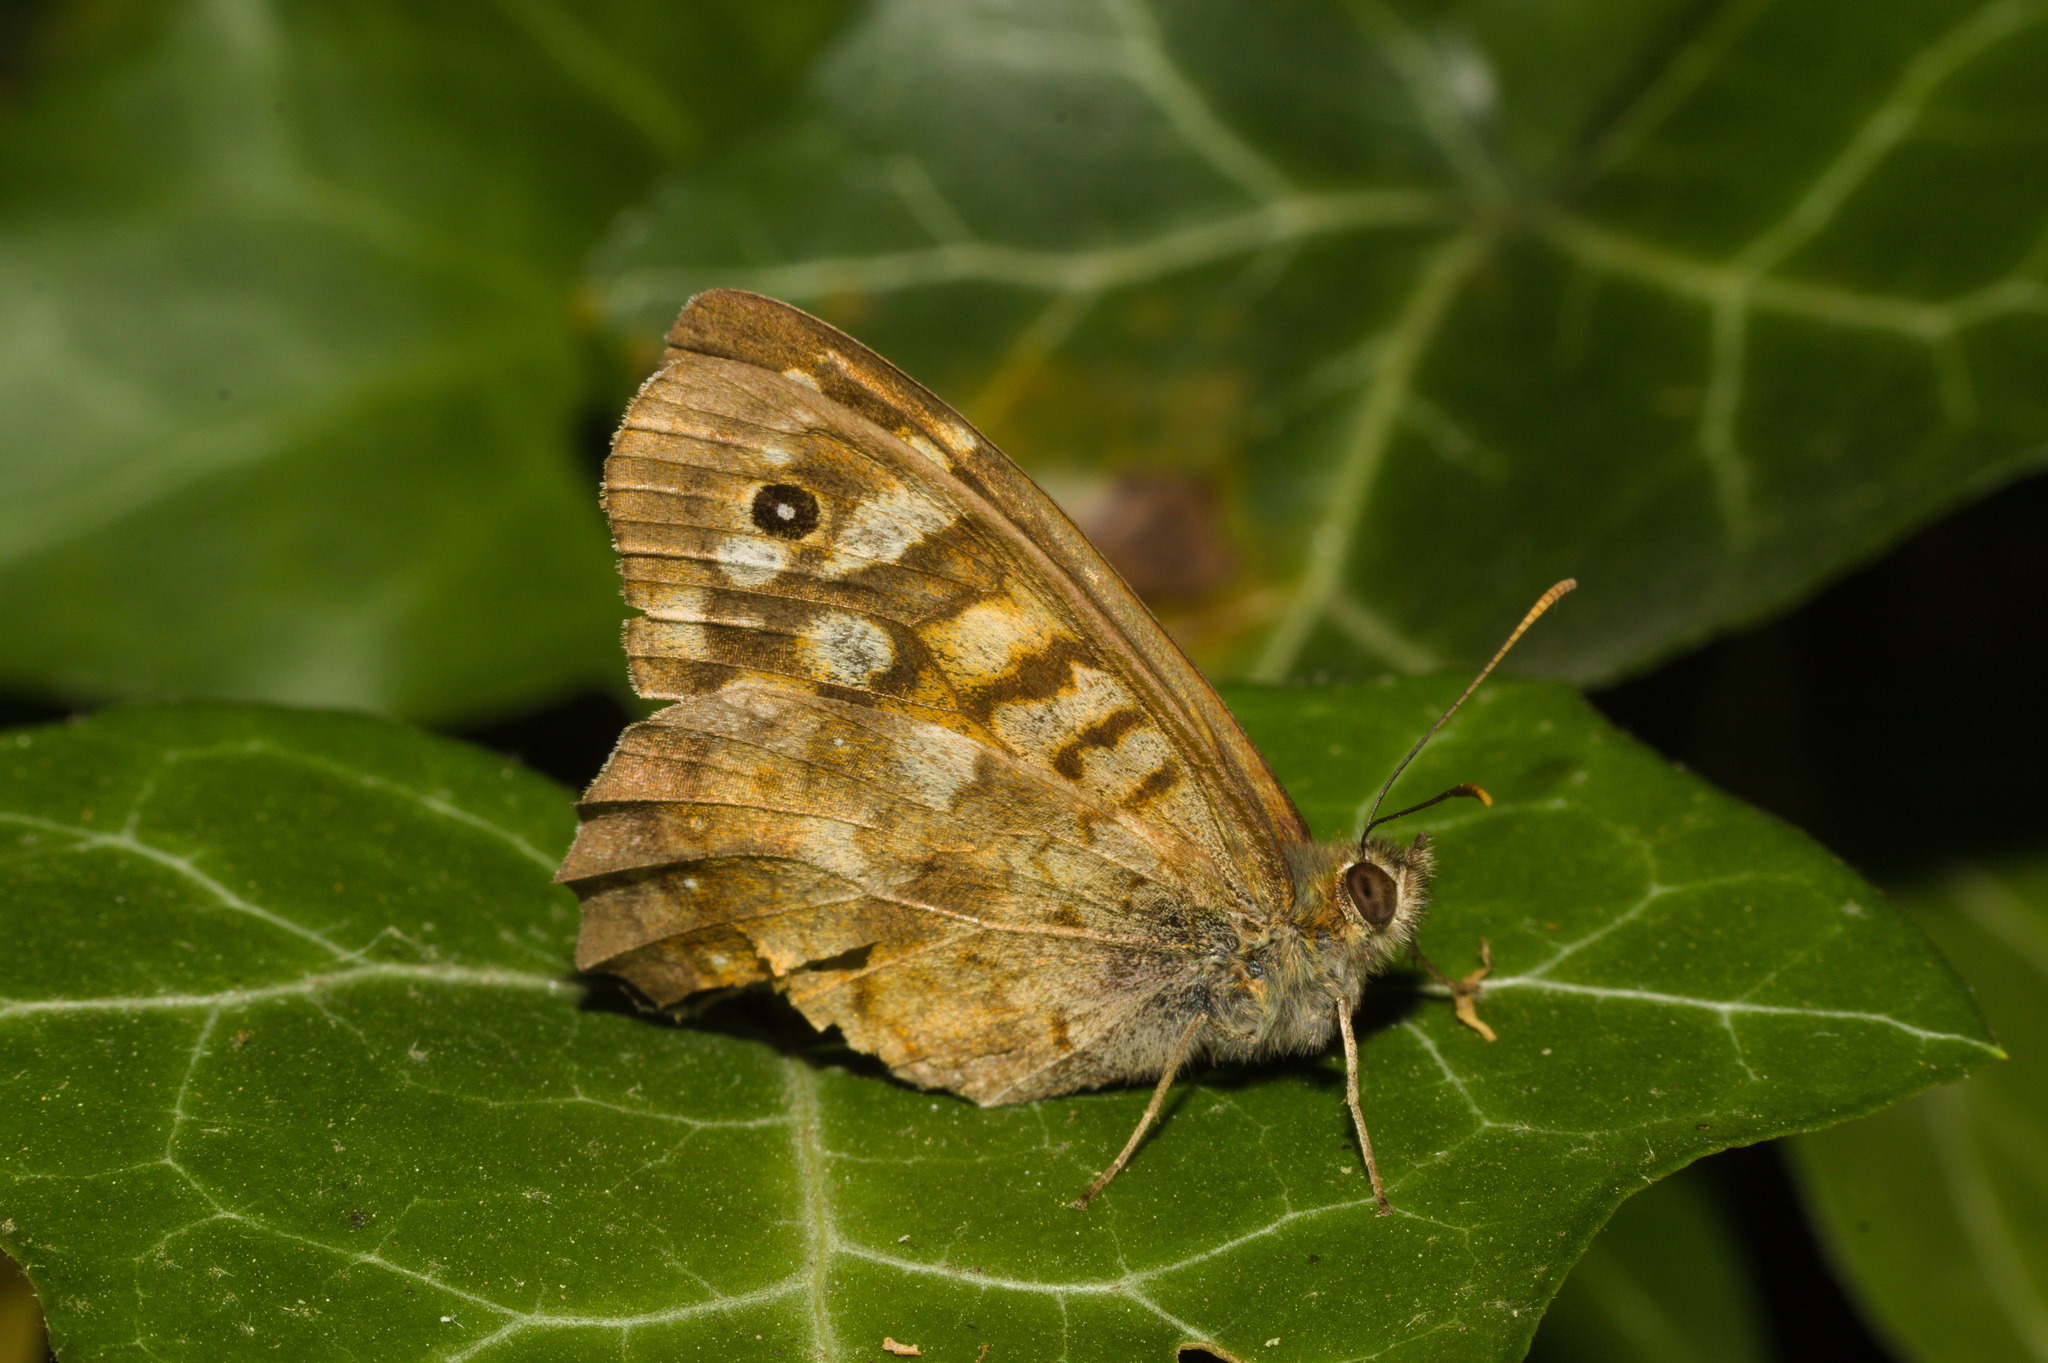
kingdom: Animalia
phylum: Arthropoda
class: Insecta
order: Lepidoptera
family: Nymphalidae
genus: Pararge
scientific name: Pararge aegeria
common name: Speckled wood
